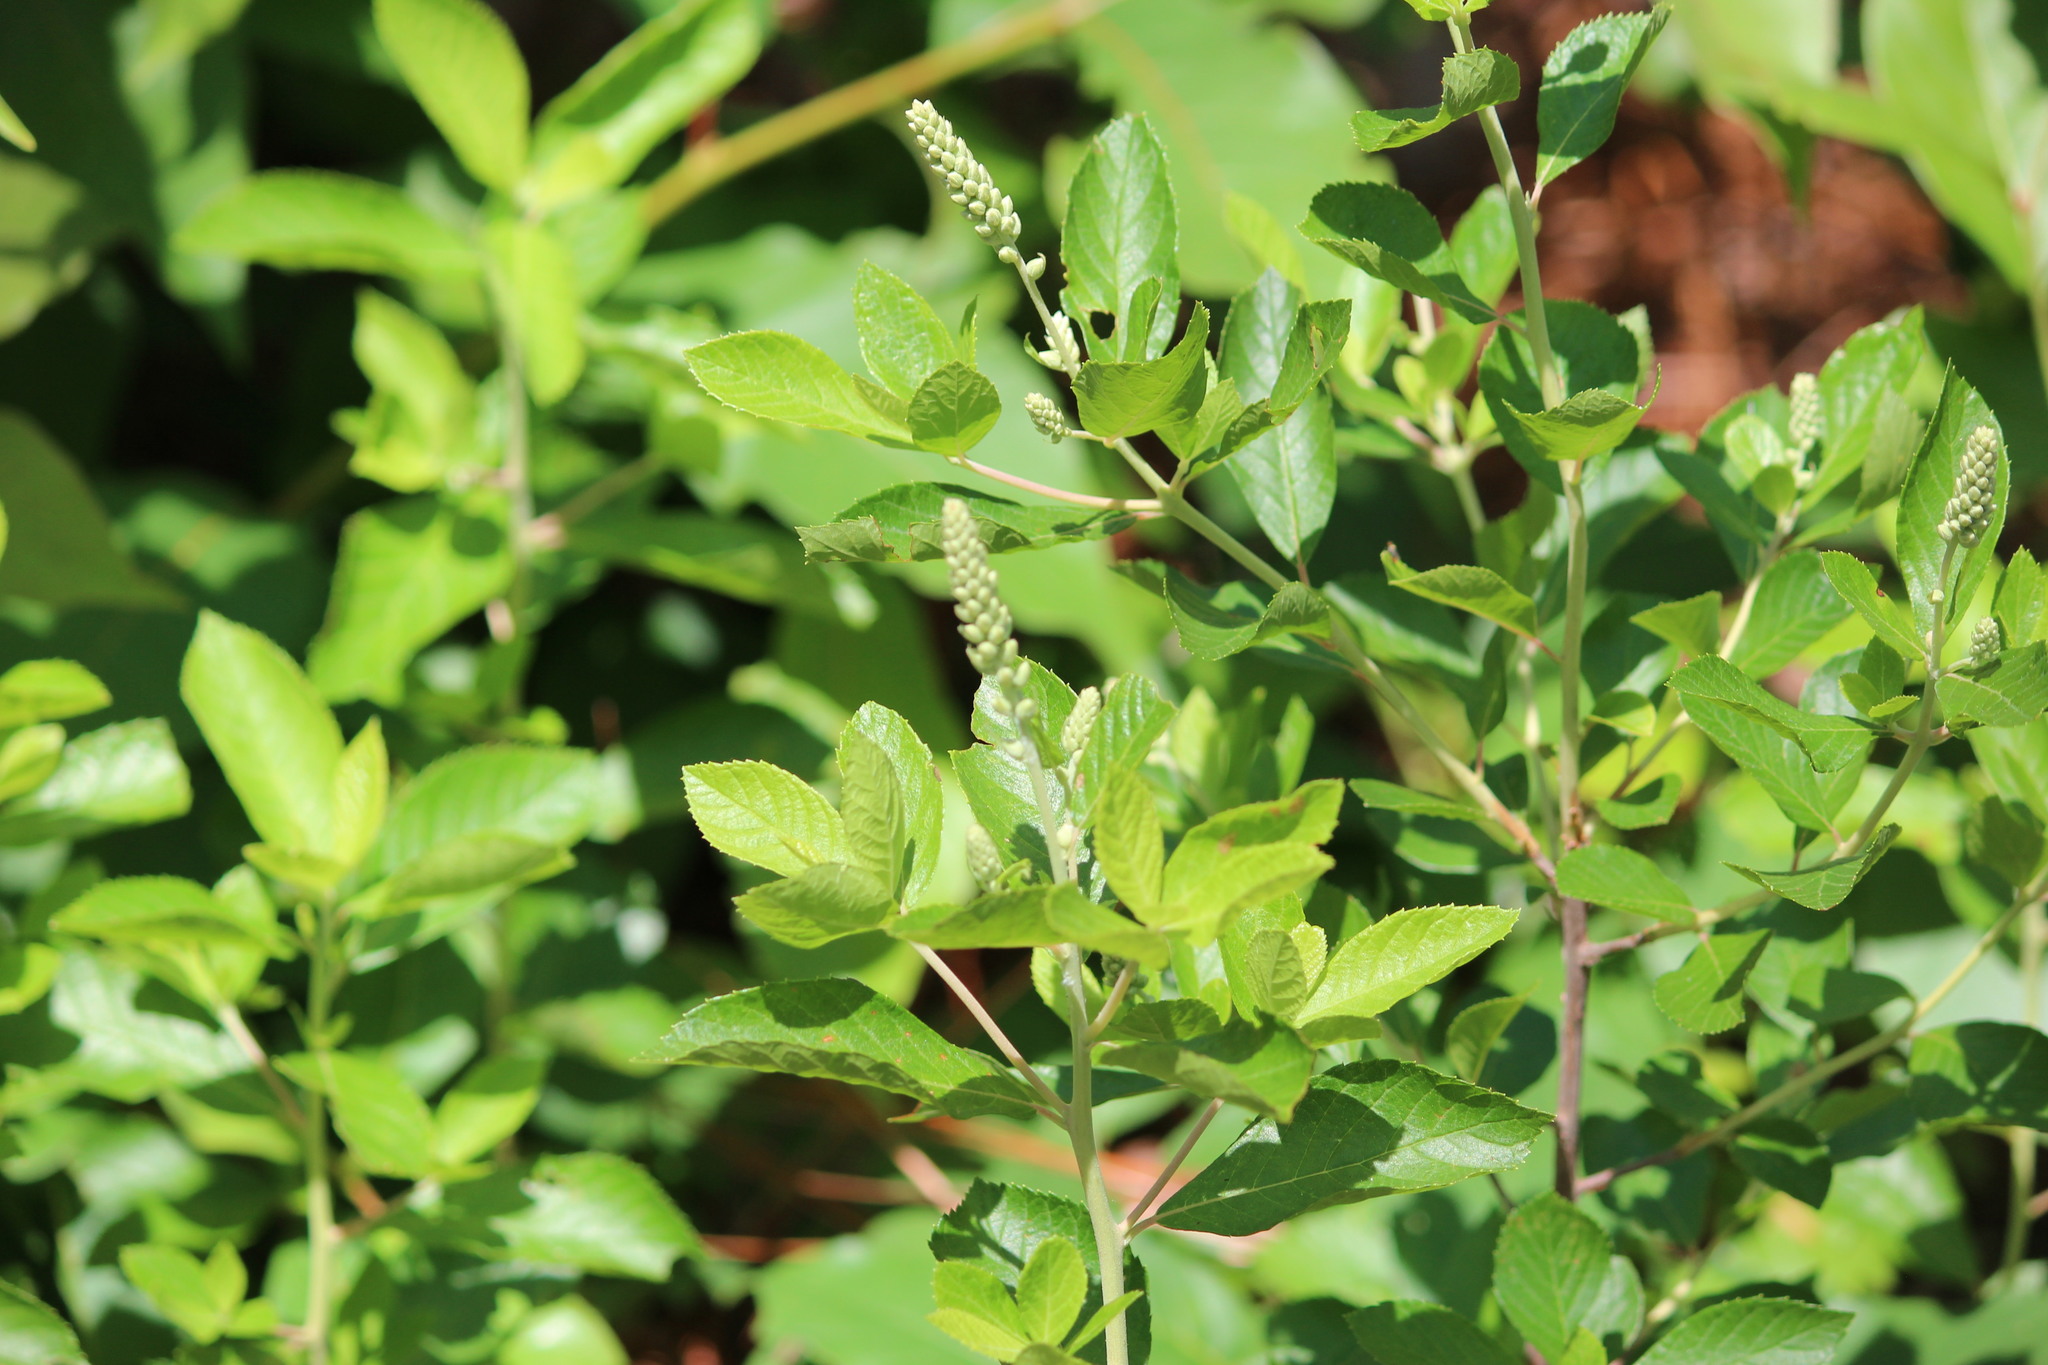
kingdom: Plantae
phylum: Tracheophyta
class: Magnoliopsida
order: Ericales
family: Clethraceae
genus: Clethra
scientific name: Clethra alnifolia
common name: Sweet pepperbush
